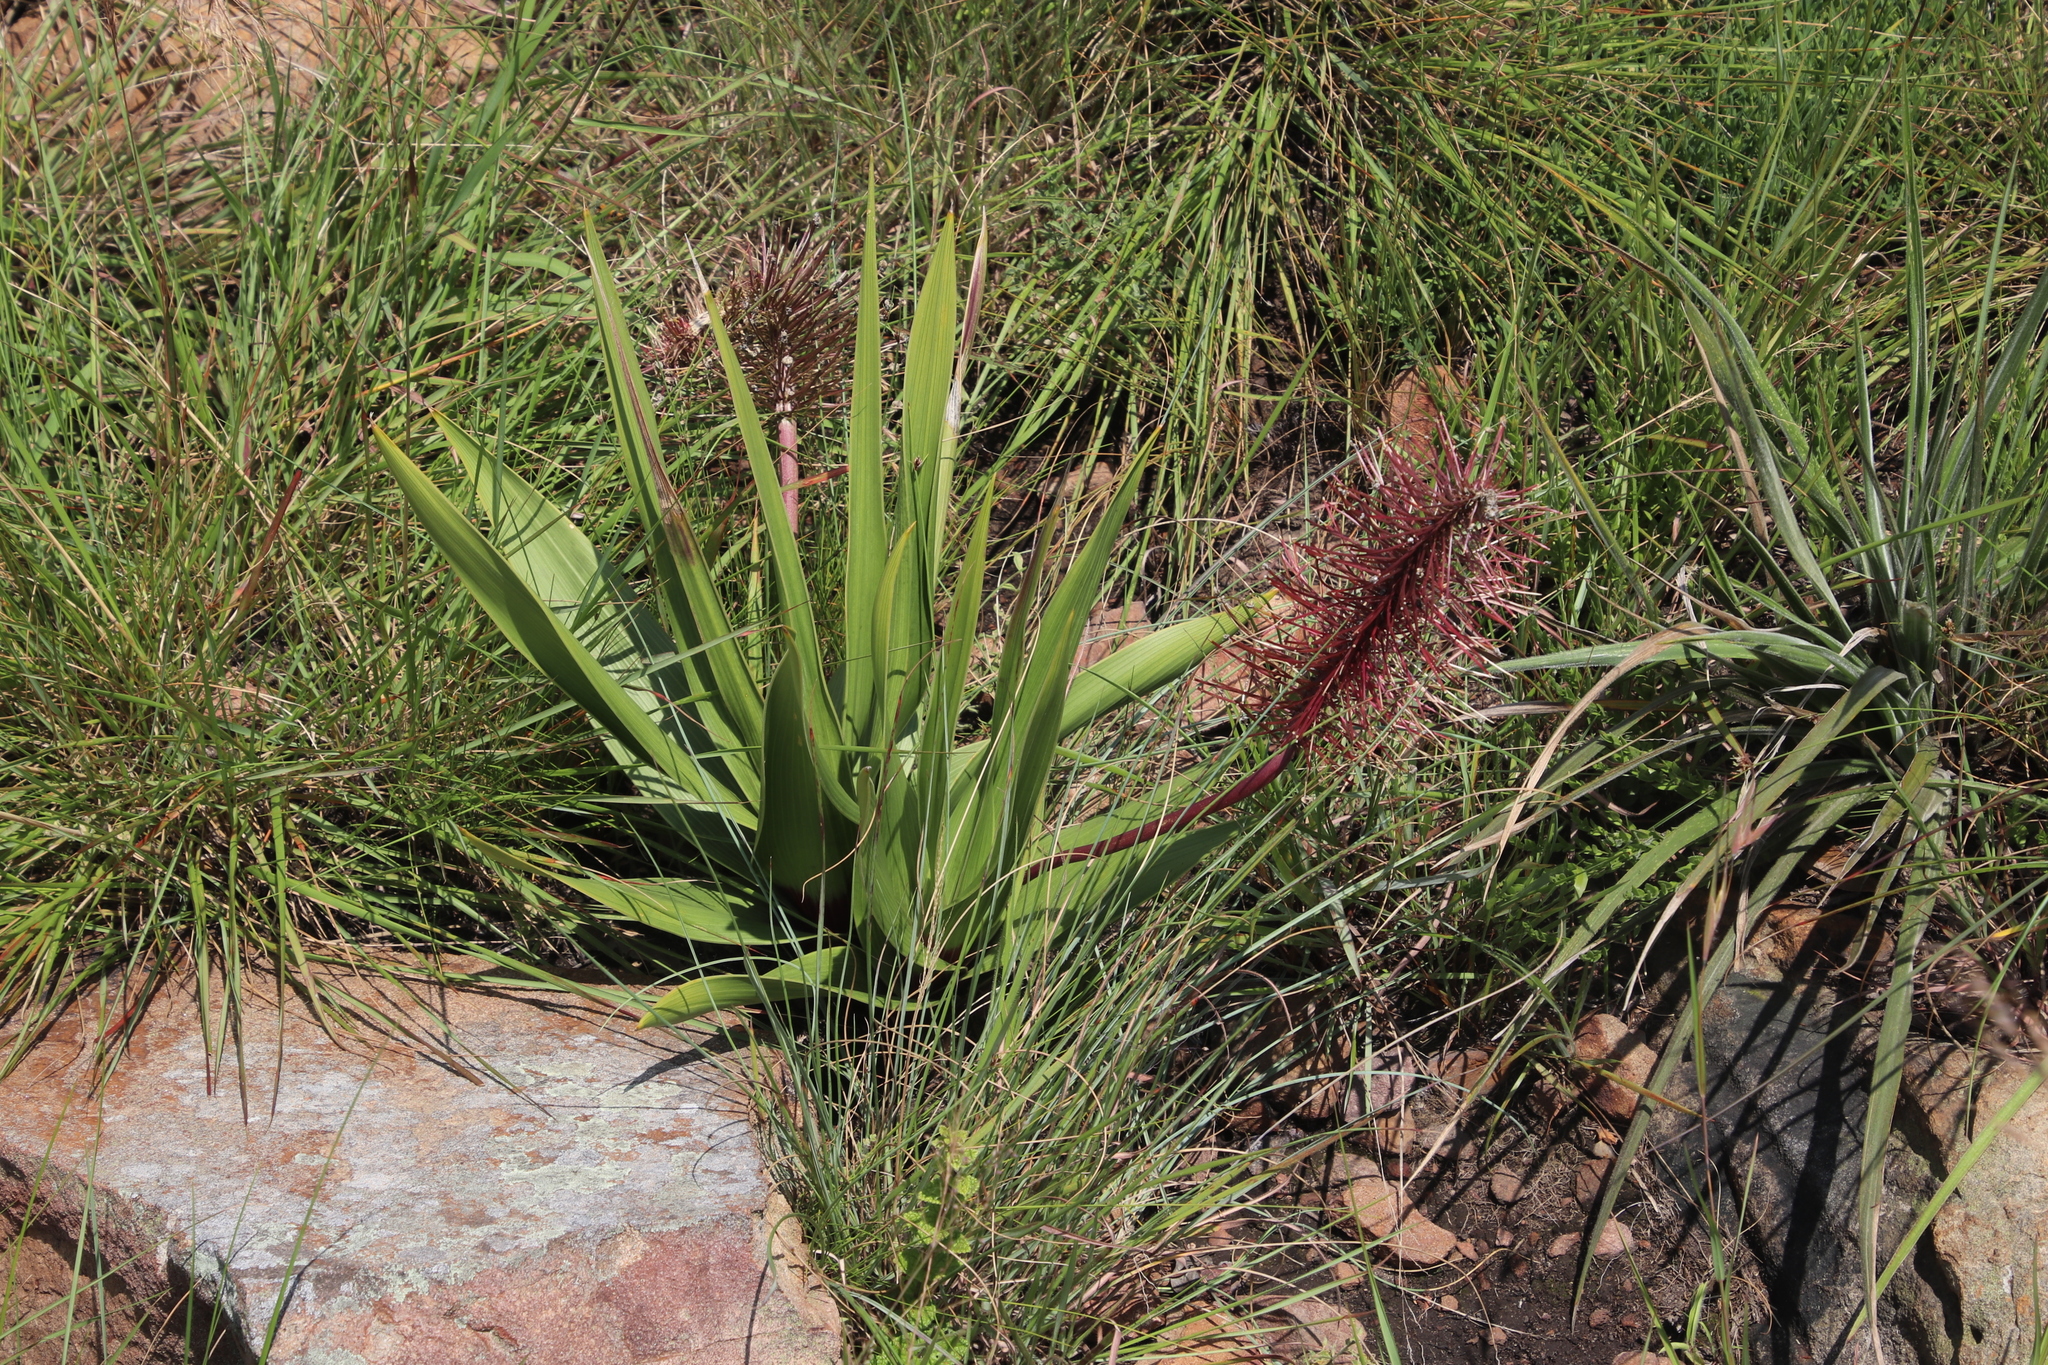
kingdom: Plantae
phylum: Tracheophyta
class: Liliopsida
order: Asparagales
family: Asparagaceae
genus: Schizocarphus
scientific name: Schizocarphus nervosus
